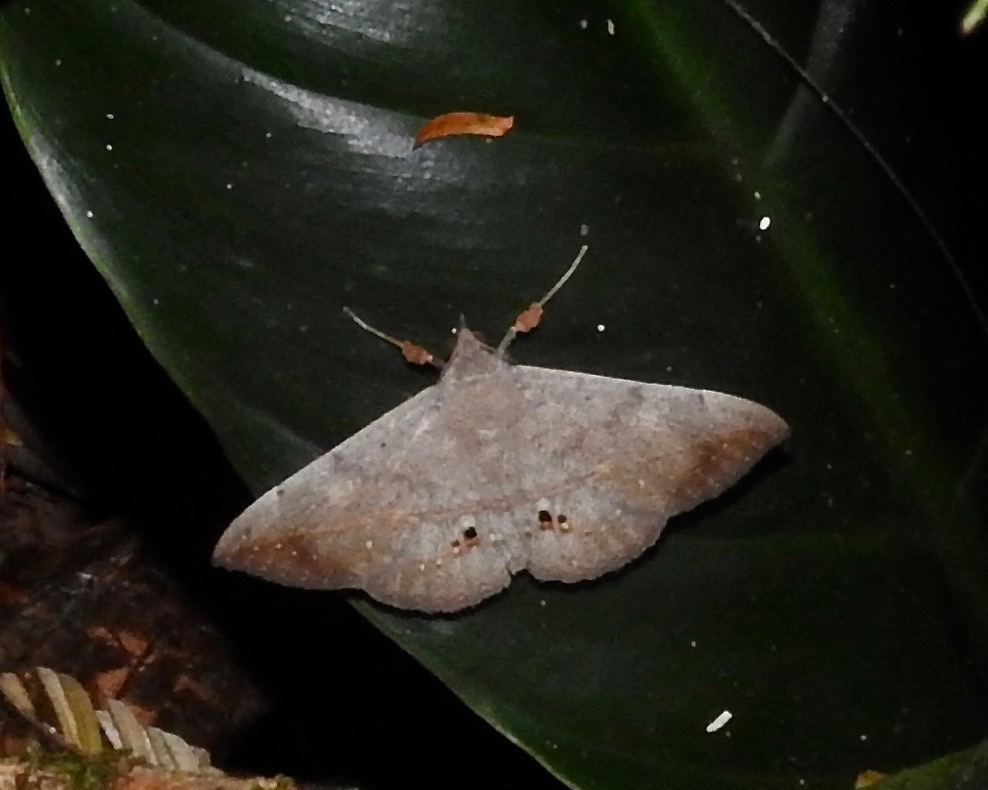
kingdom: Animalia
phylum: Arthropoda
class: Insecta
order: Lepidoptera
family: Erebidae
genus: Anticarsia
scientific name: Anticarsia gemmatalis
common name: Cutworm moth
